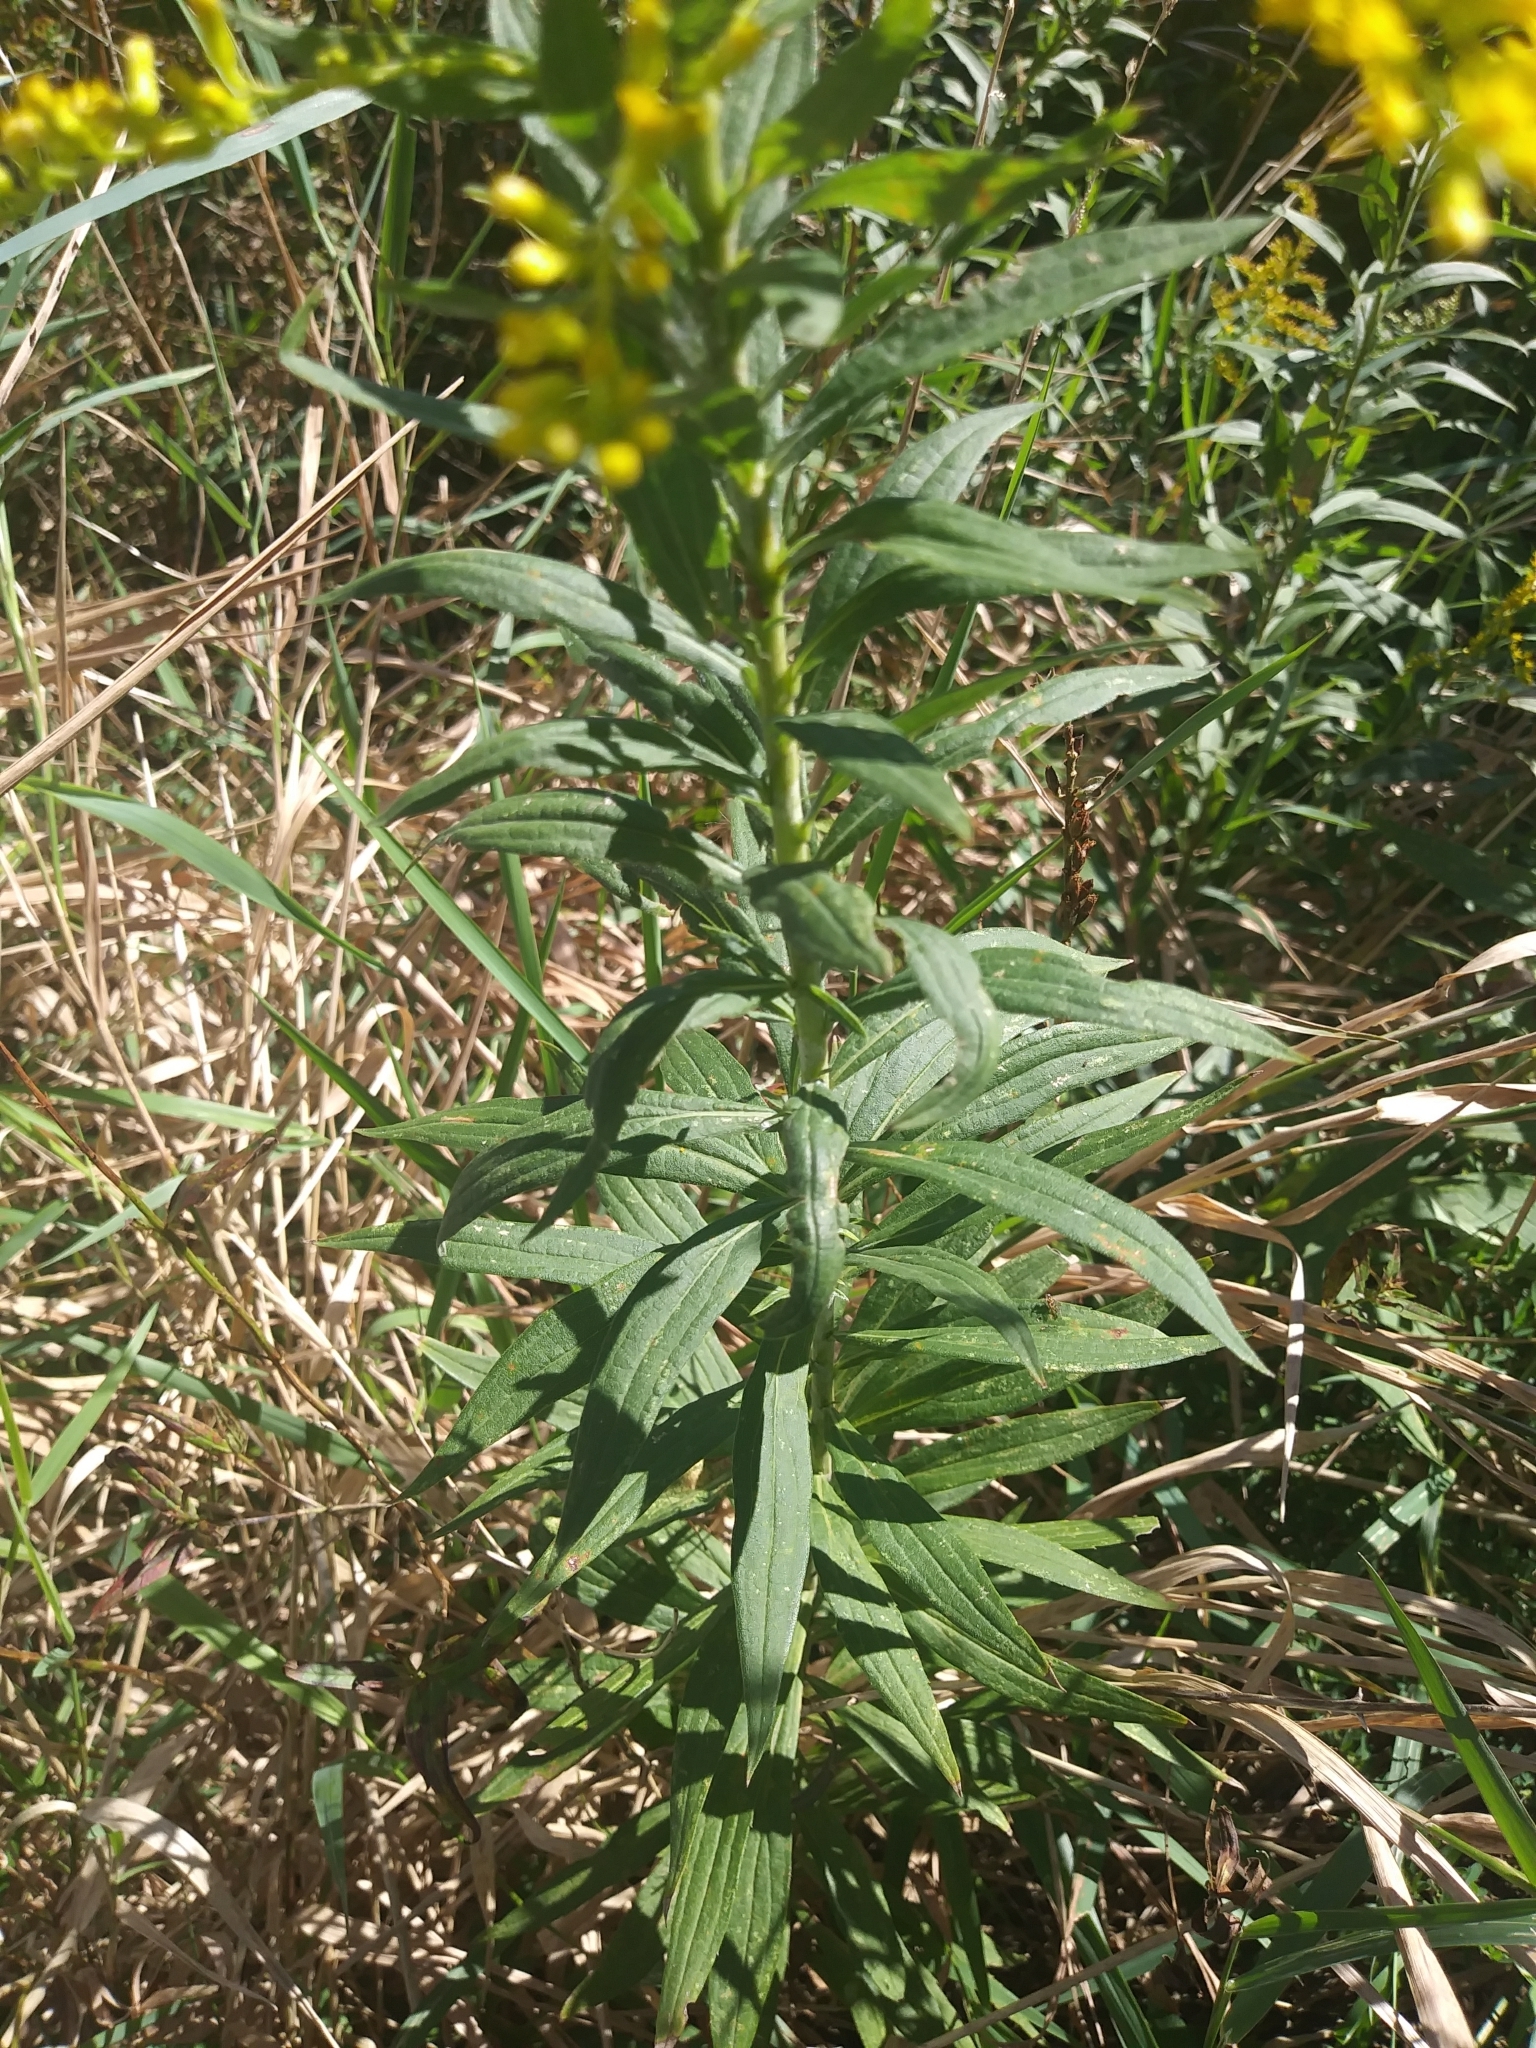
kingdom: Plantae
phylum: Tracheophyta
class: Magnoliopsida
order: Asterales
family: Asteraceae
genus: Solidago
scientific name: Solidago altissima
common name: Late goldenrod
